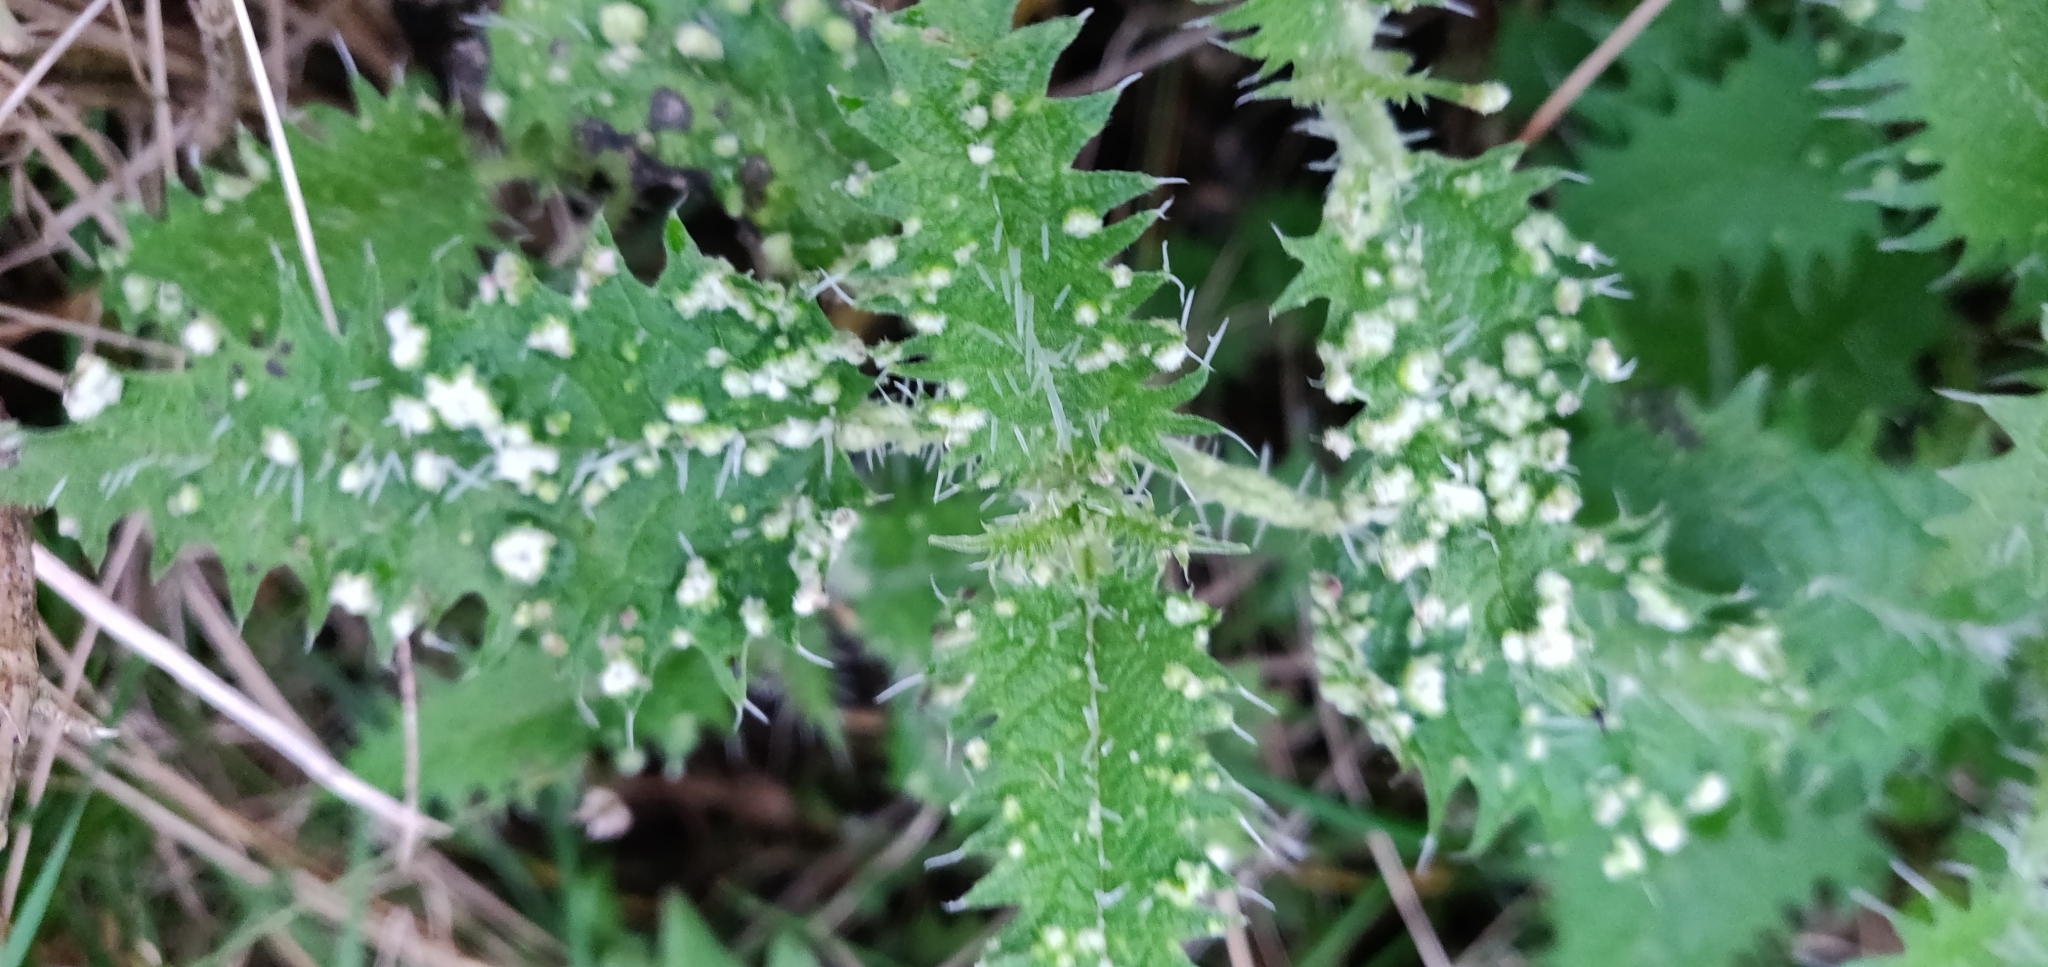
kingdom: Plantae
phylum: Tracheophyta
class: Magnoliopsida
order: Rosales
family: Urticaceae
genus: Urtica
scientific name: Urtica ferox
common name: Tree nettle
